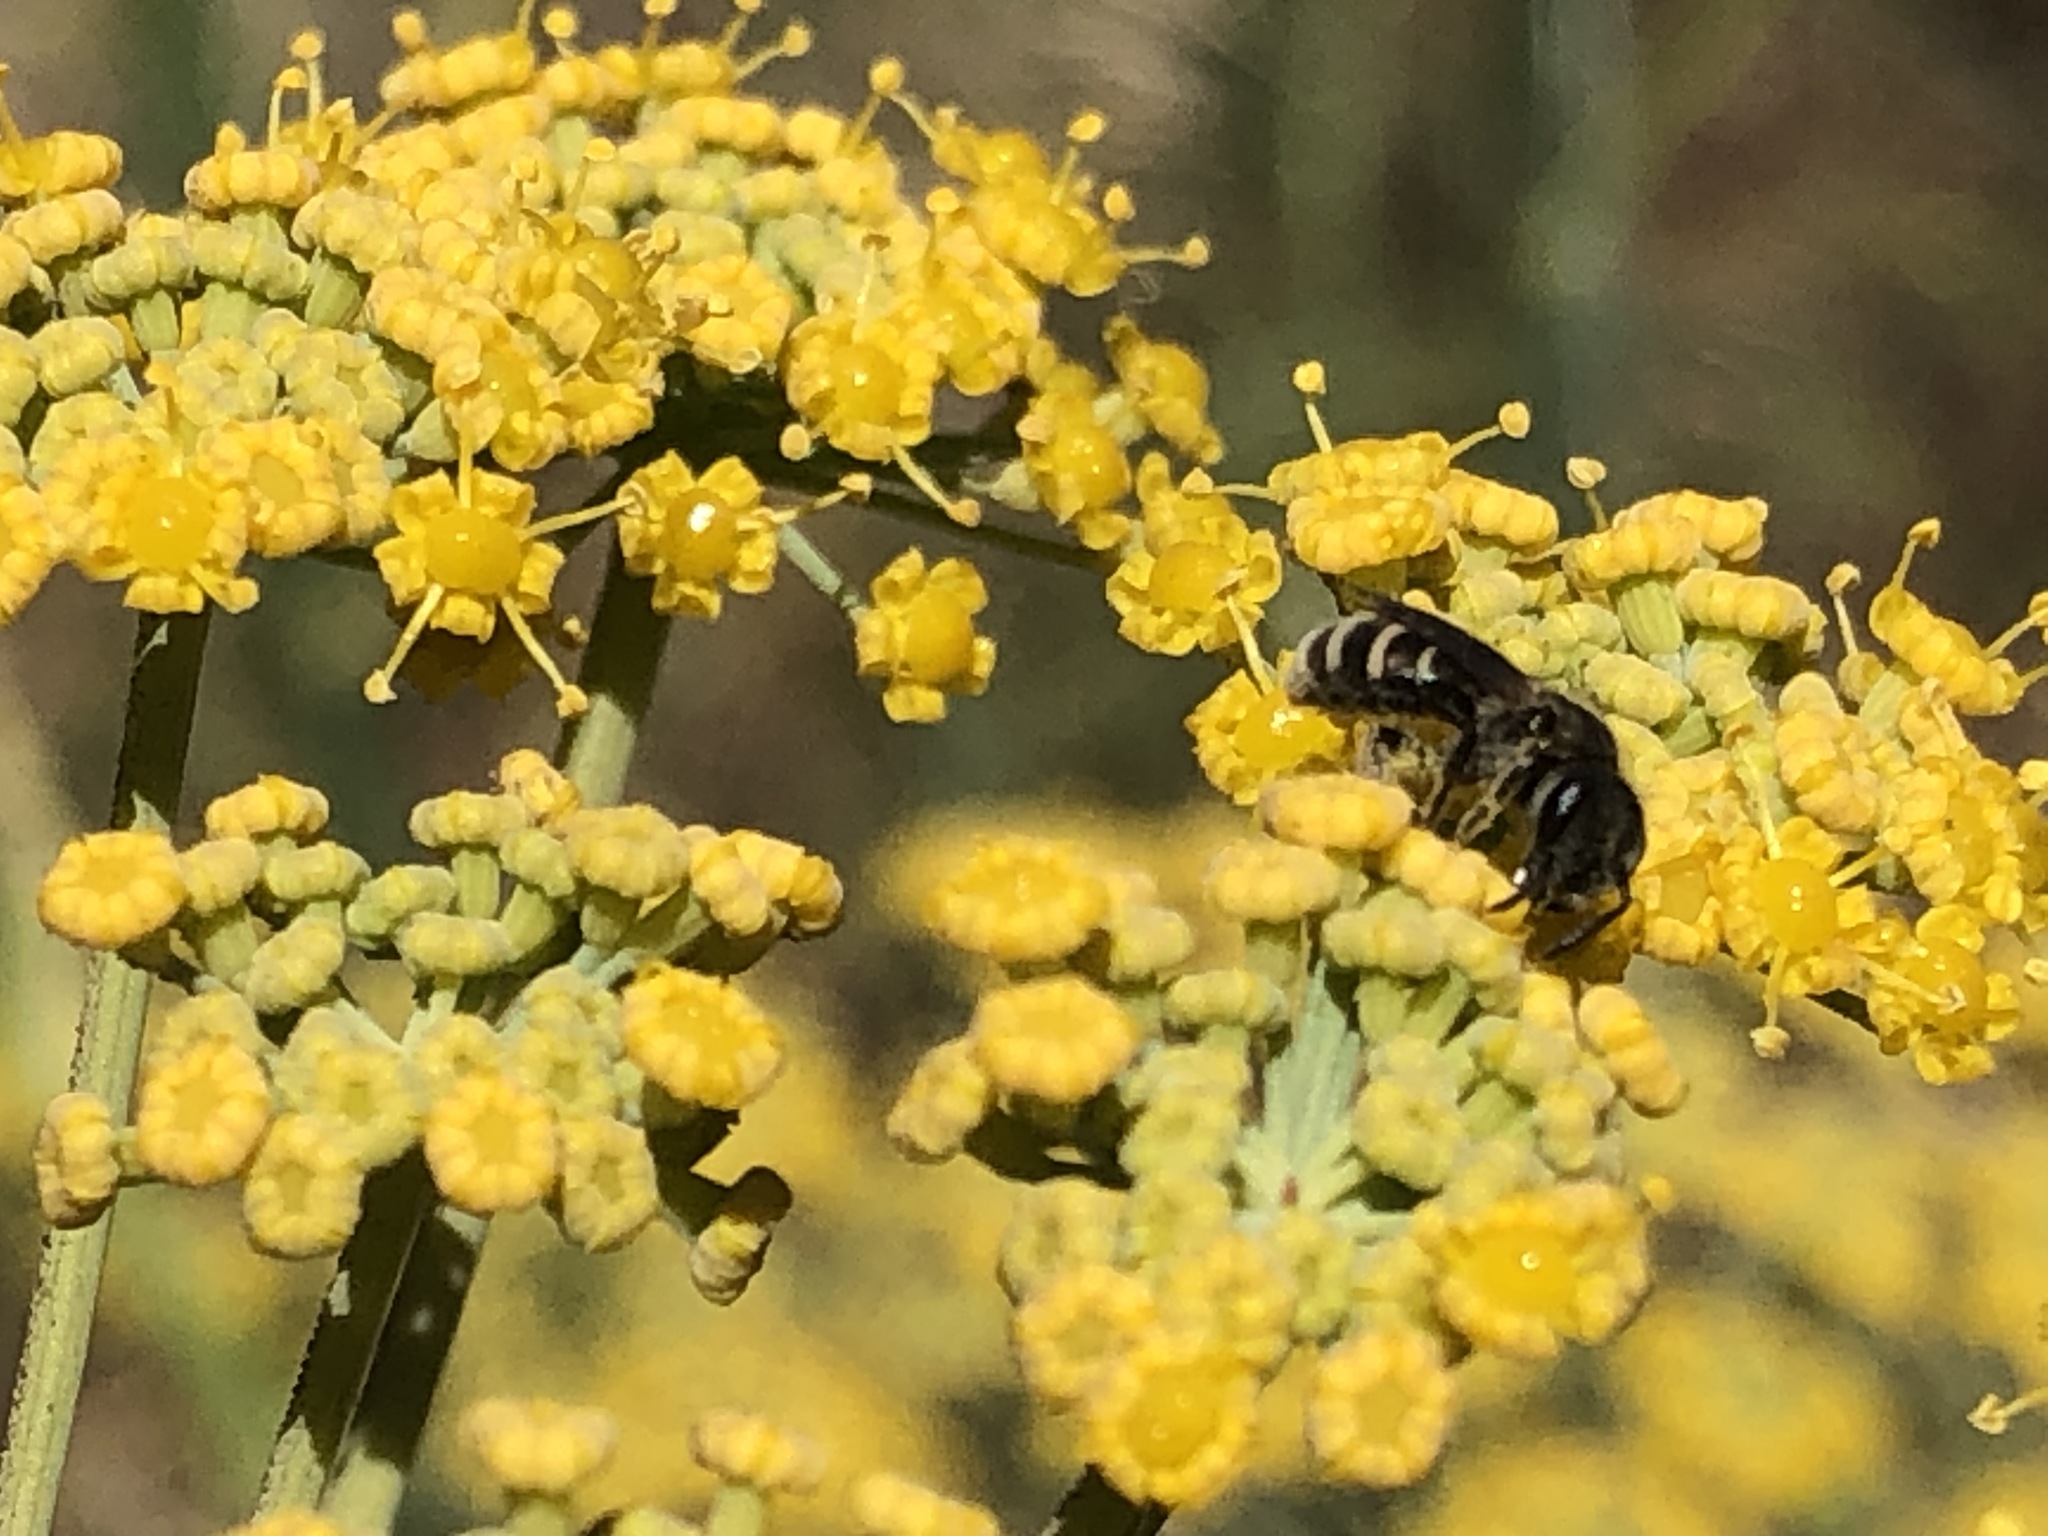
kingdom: Animalia
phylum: Arthropoda
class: Insecta
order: Hymenoptera
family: Halictidae
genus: Halictus
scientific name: Halictus tripartitus
